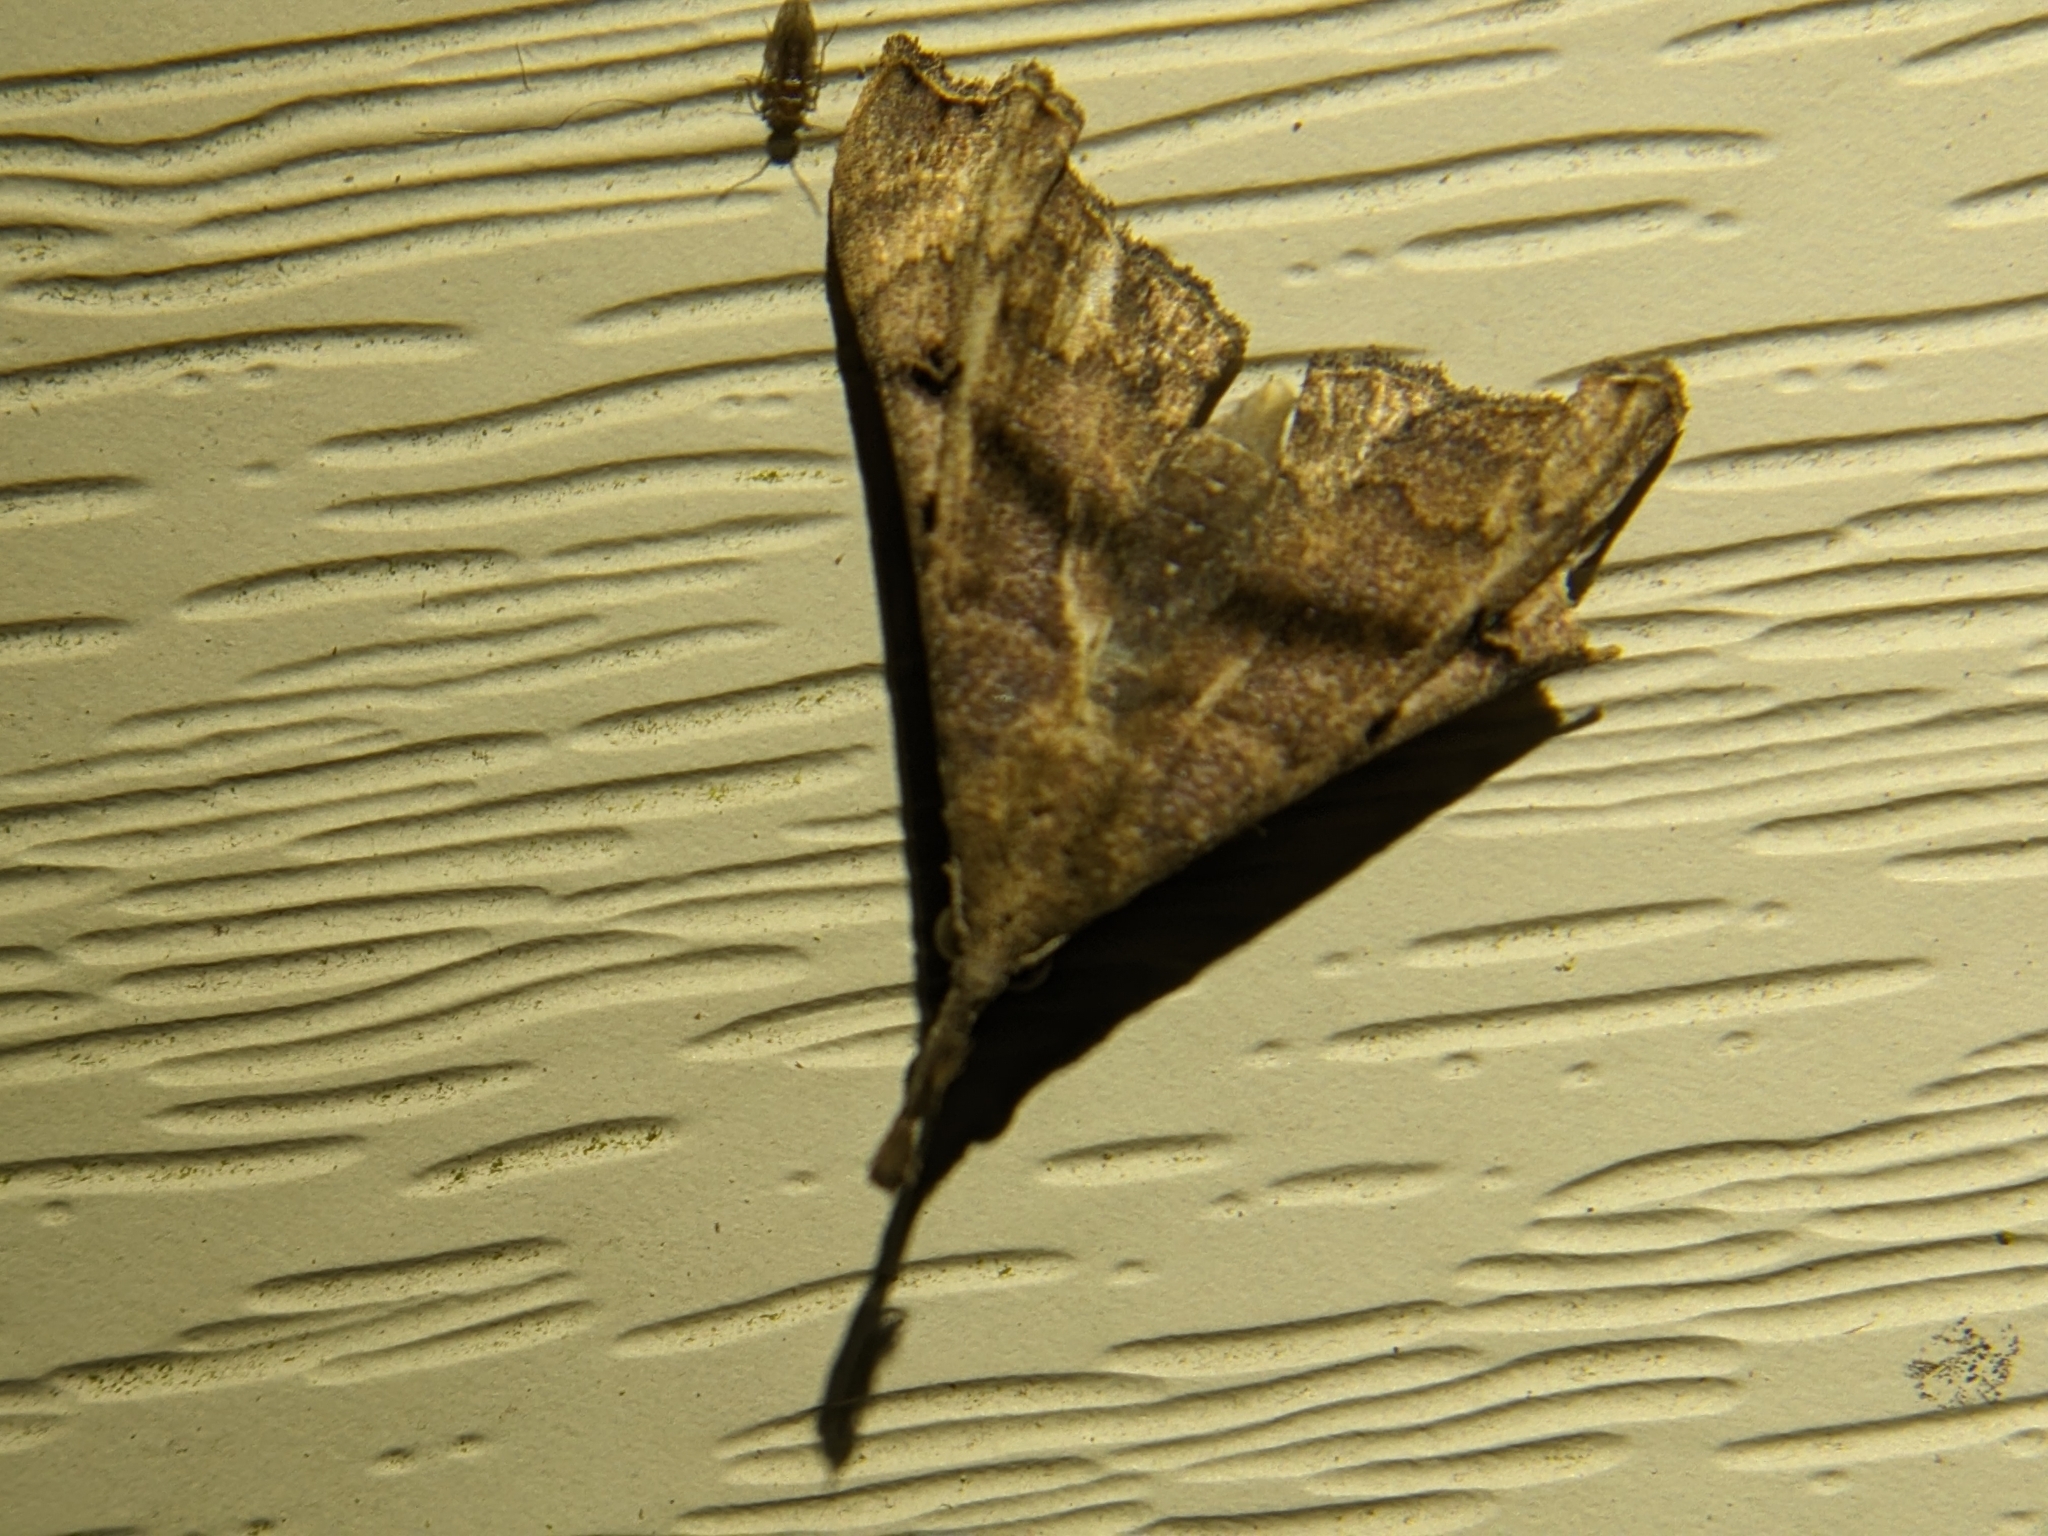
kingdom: Animalia
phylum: Arthropoda
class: Insecta
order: Lepidoptera
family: Erebidae
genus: Palthis
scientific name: Palthis asopialis
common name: Faint-spotted palthis moth
